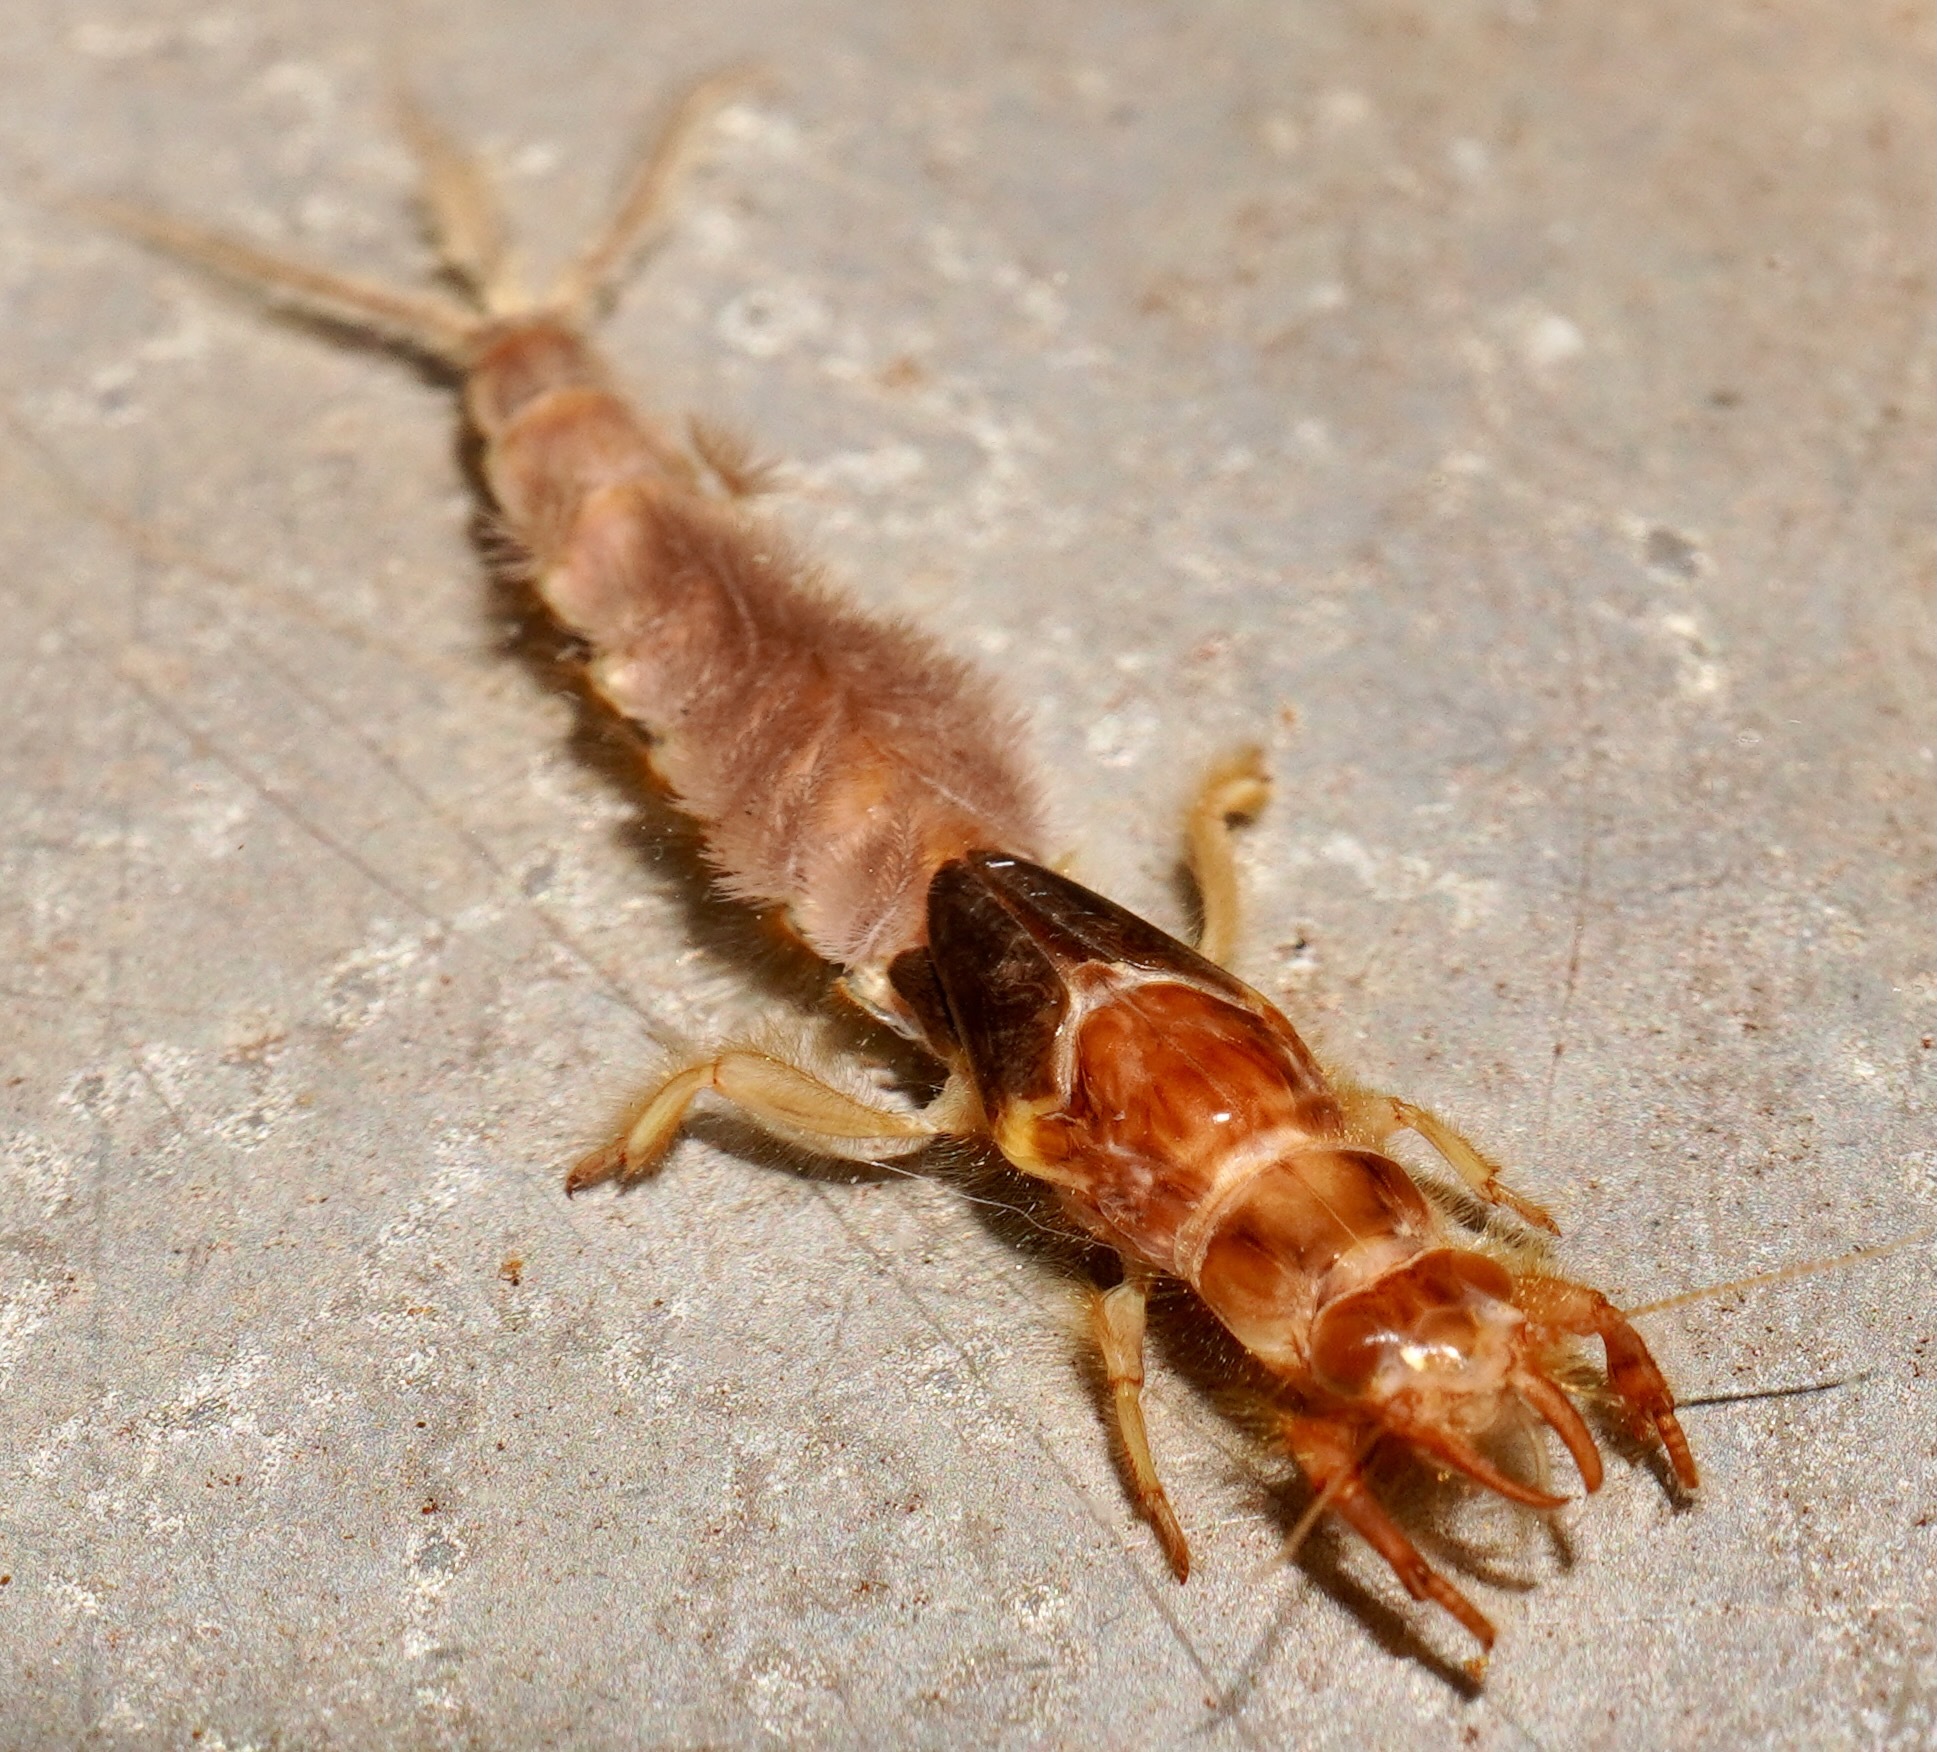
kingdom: Animalia
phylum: Arthropoda
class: Insecta
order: Ephemeroptera
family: Ichthybotidae
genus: Ichthybotus
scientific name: Ichthybotus bicolor
